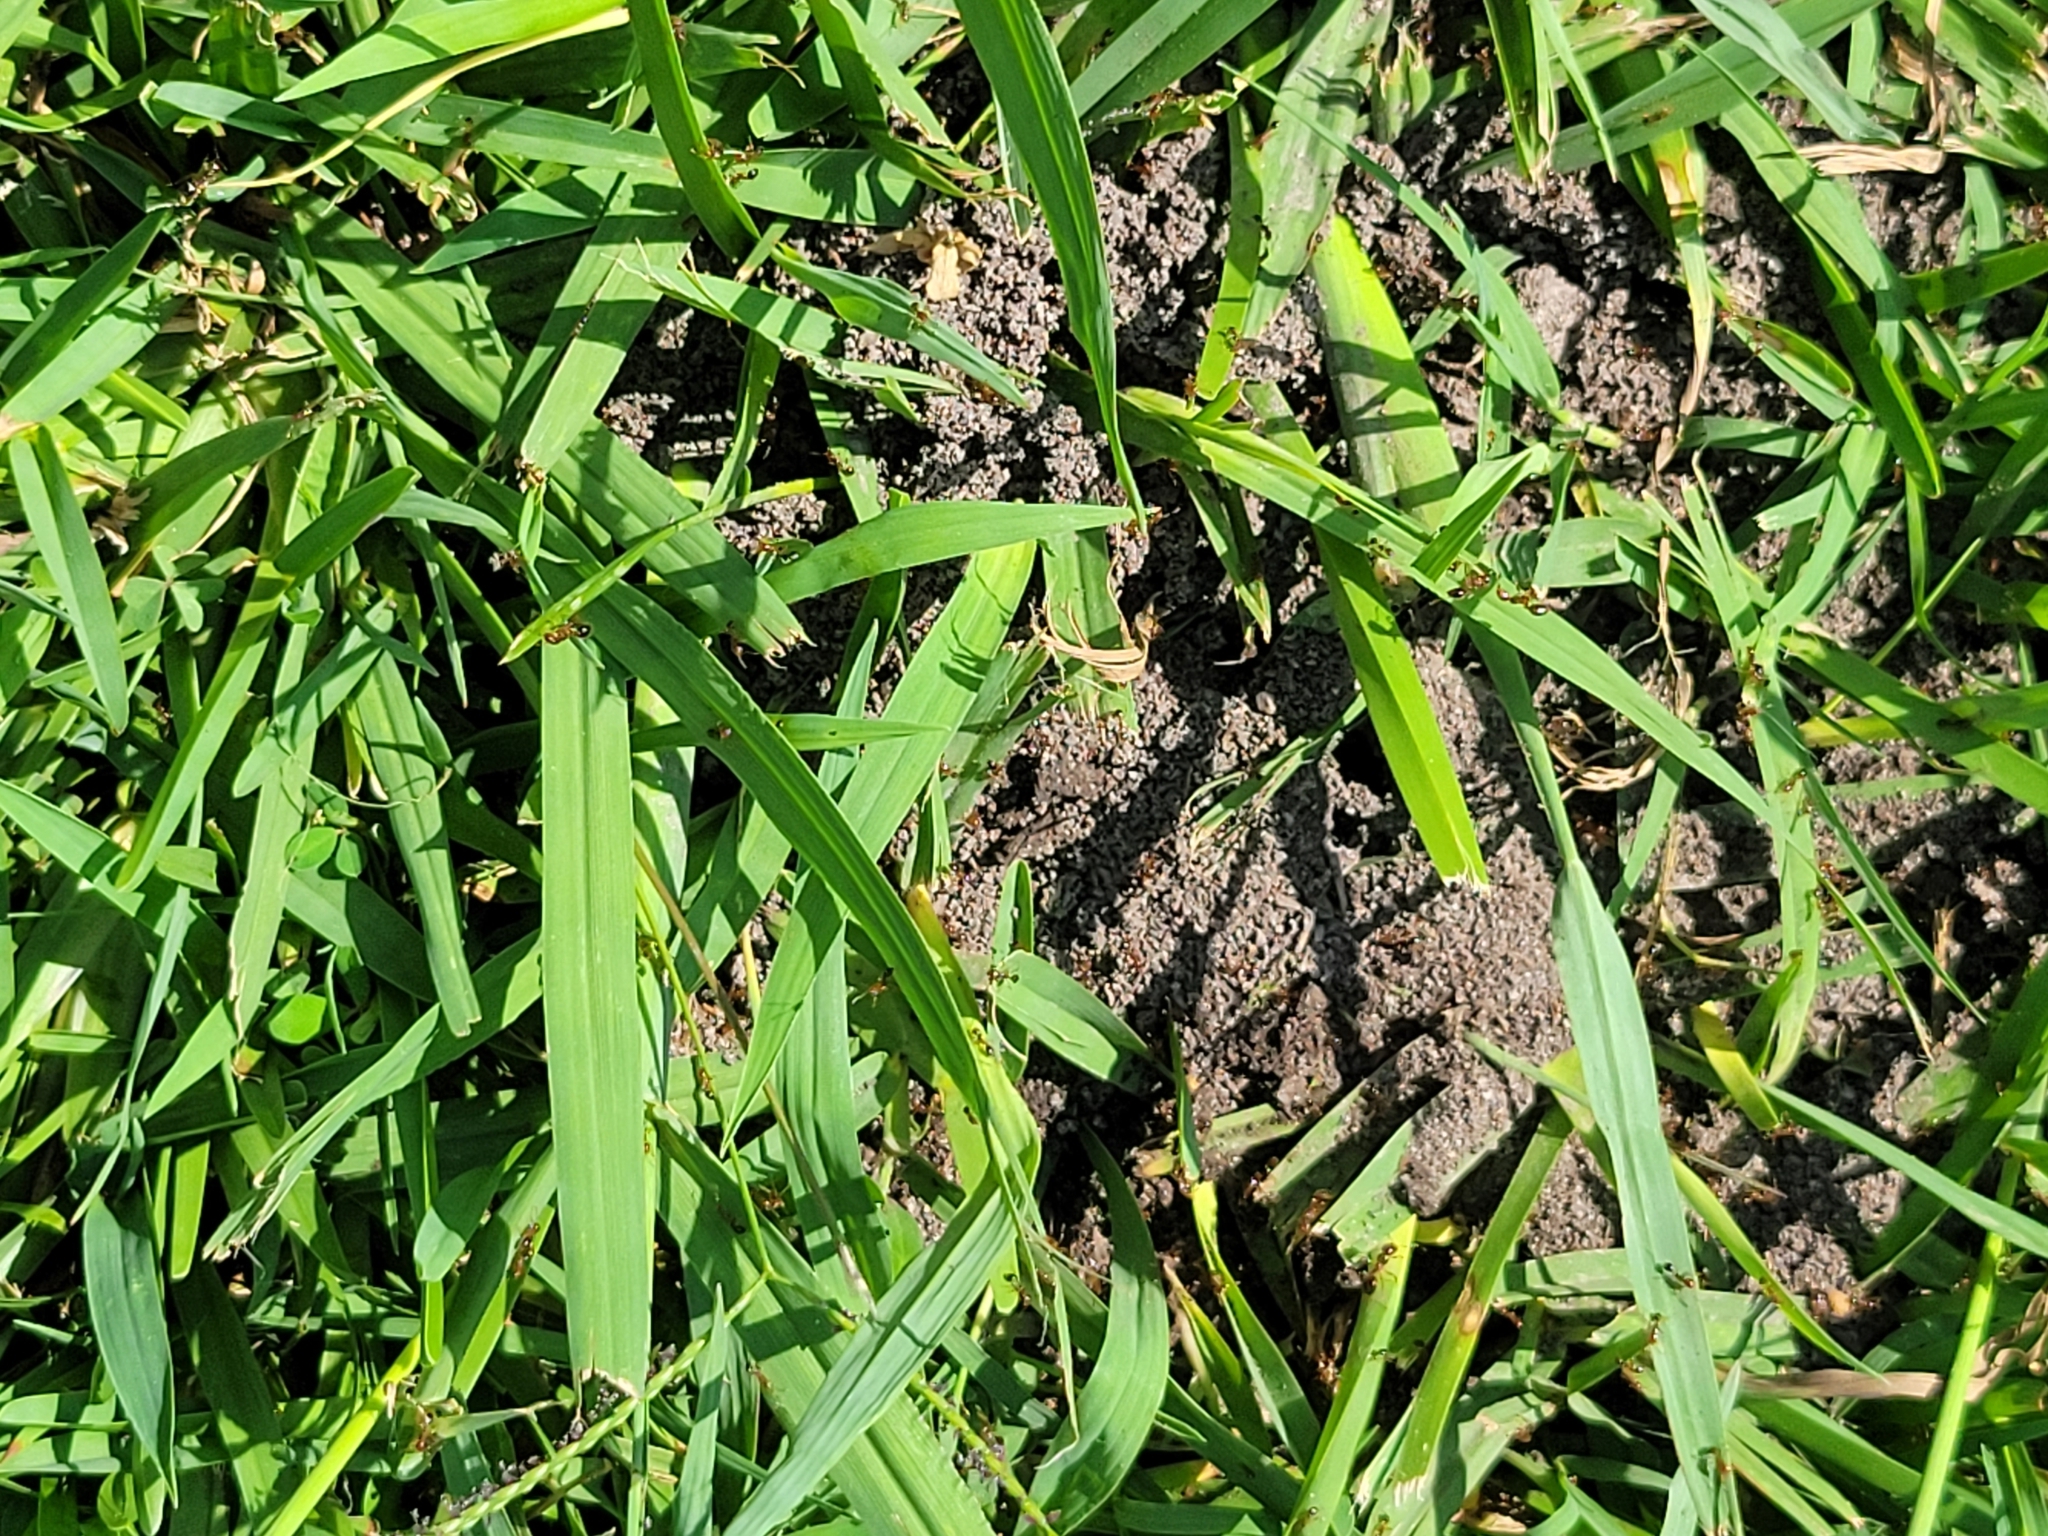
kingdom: Animalia
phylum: Arthropoda
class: Insecta
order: Hymenoptera
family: Formicidae
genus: Solenopsis
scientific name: Solenopsis invicta
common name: Red imported fire ant
